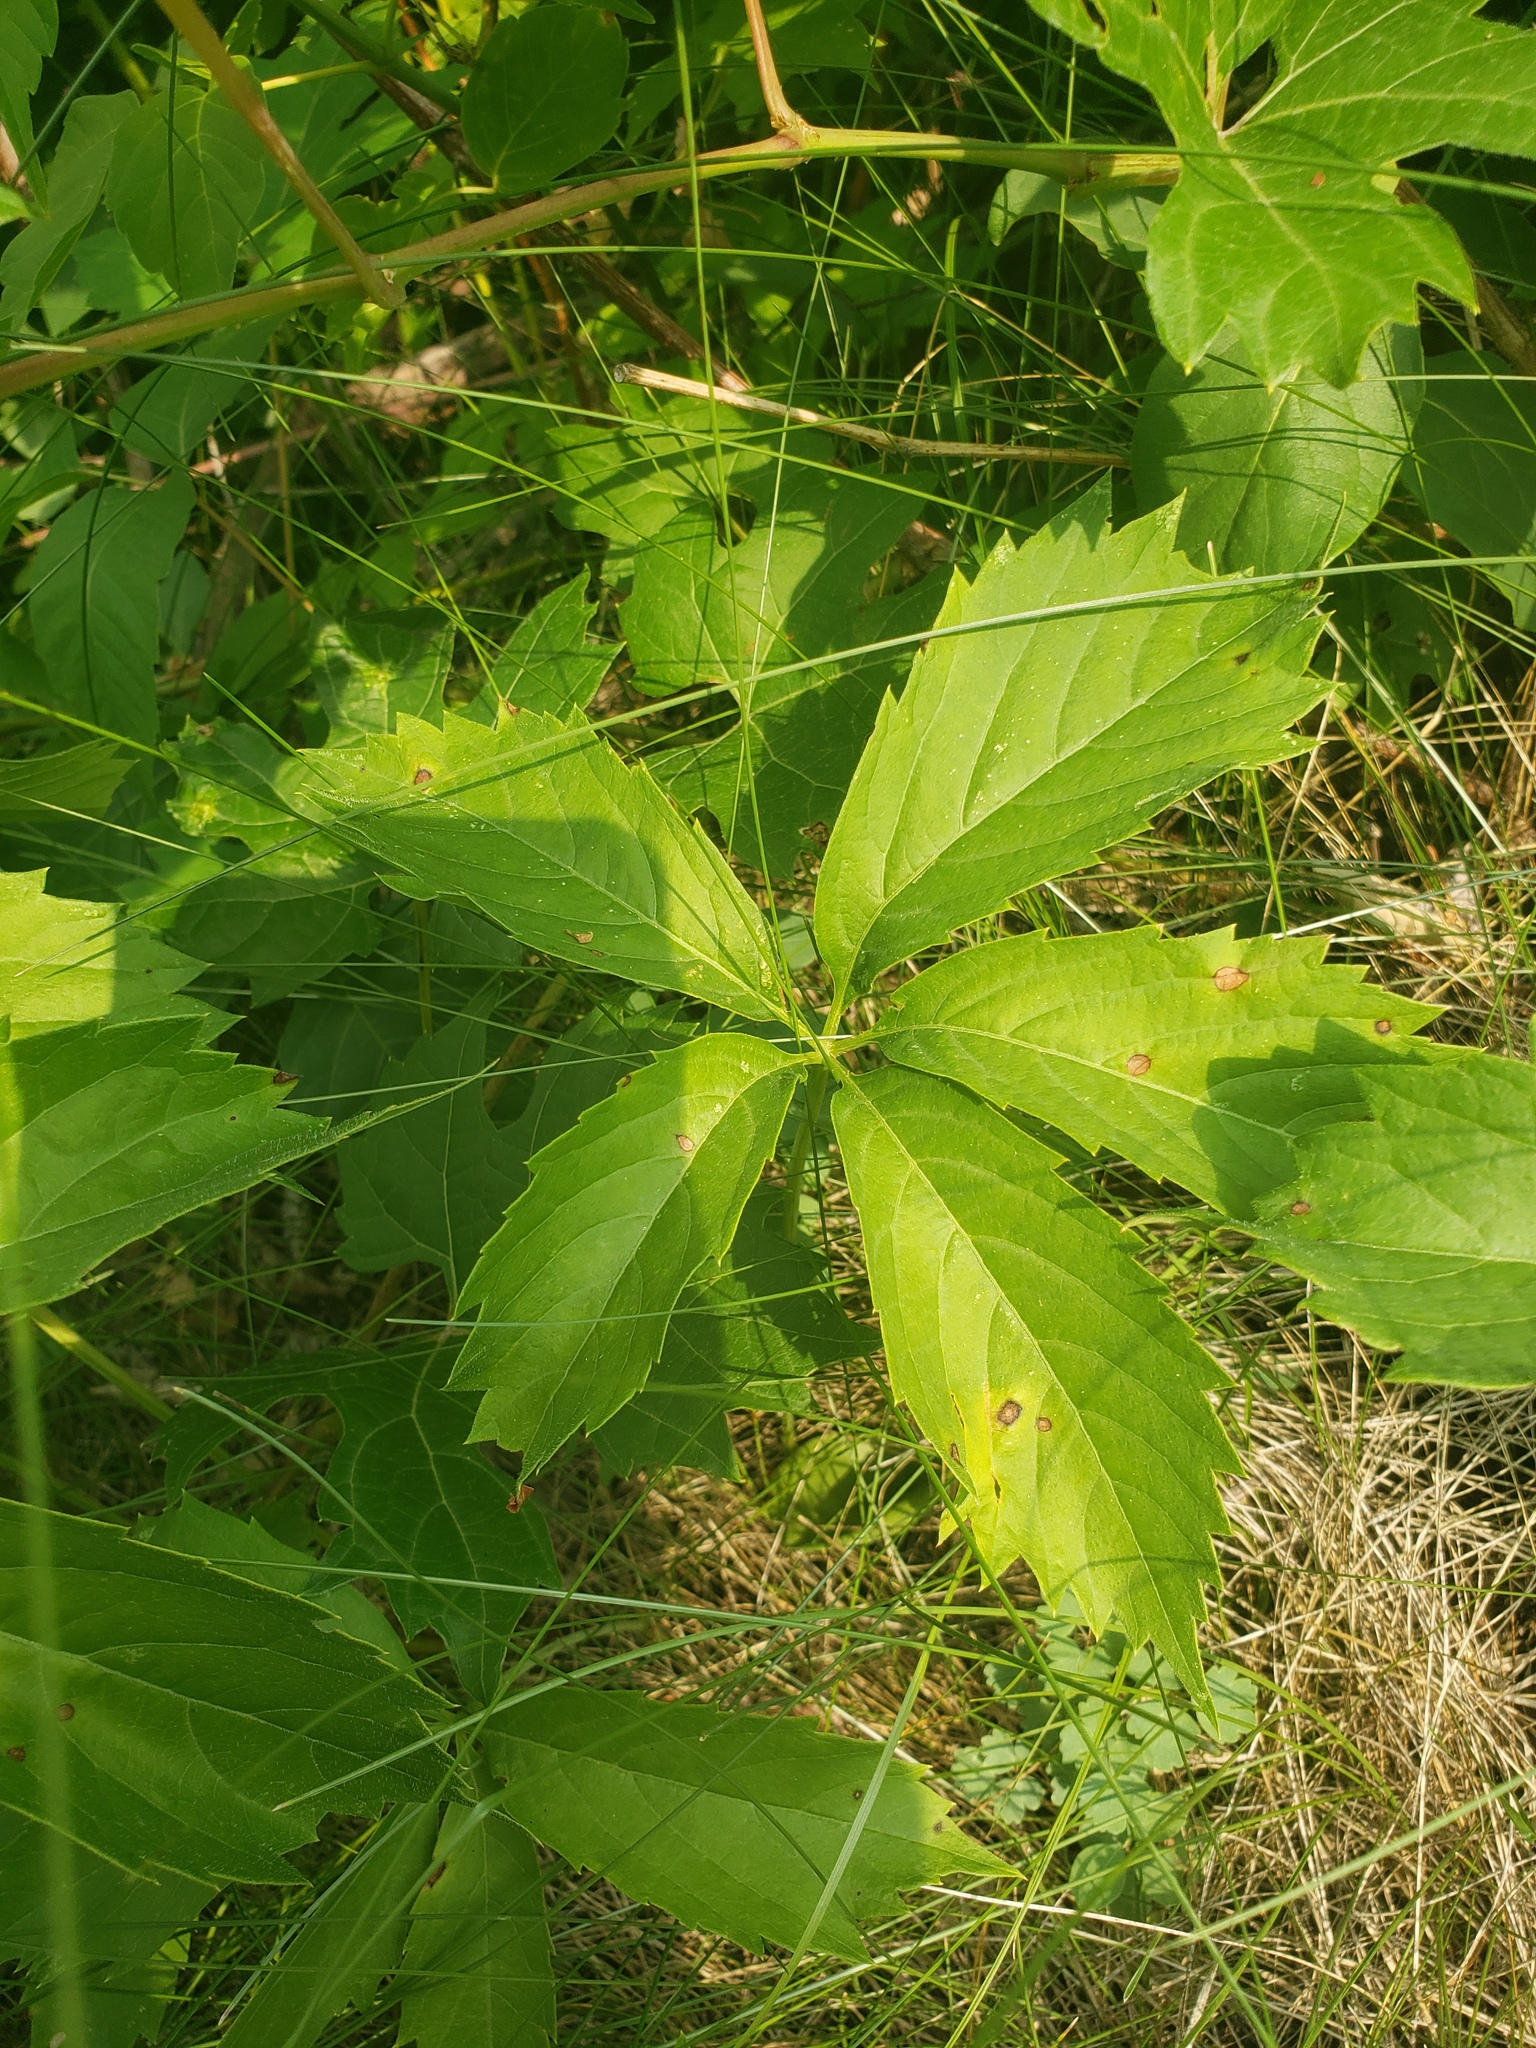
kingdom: Plantae
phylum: Tracheophyta
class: Magnoliopsida
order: Vitales
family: Vitaceae
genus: Parthenocissus
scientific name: Parthenocissus quinquefolia
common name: Virginia-creeper
